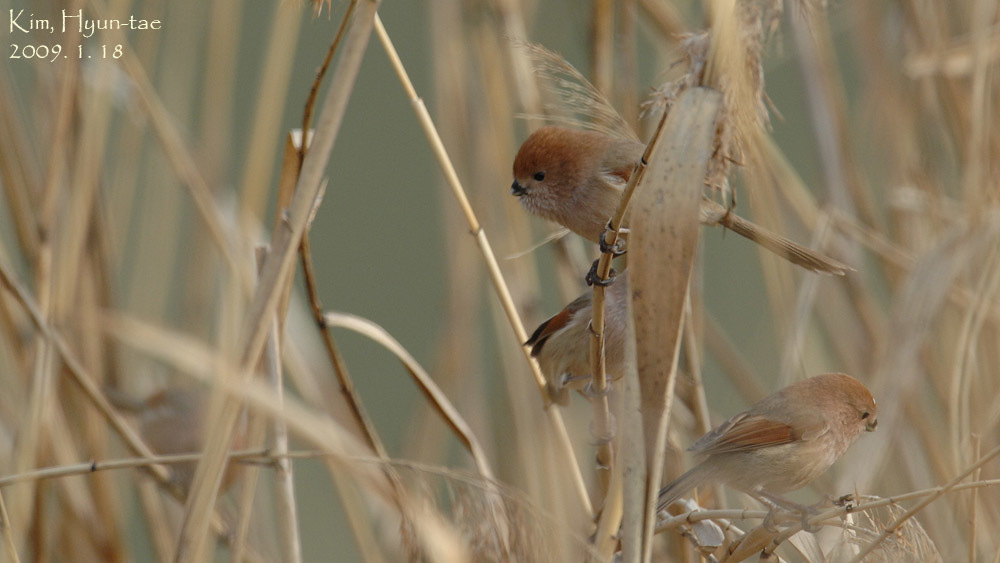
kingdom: Animalia
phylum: Chordata
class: Aves
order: Passeriformes
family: Sylviidae
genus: Sinosuthora
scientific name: Sinosuthora webbiana
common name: Vinous-throated parrotbill
